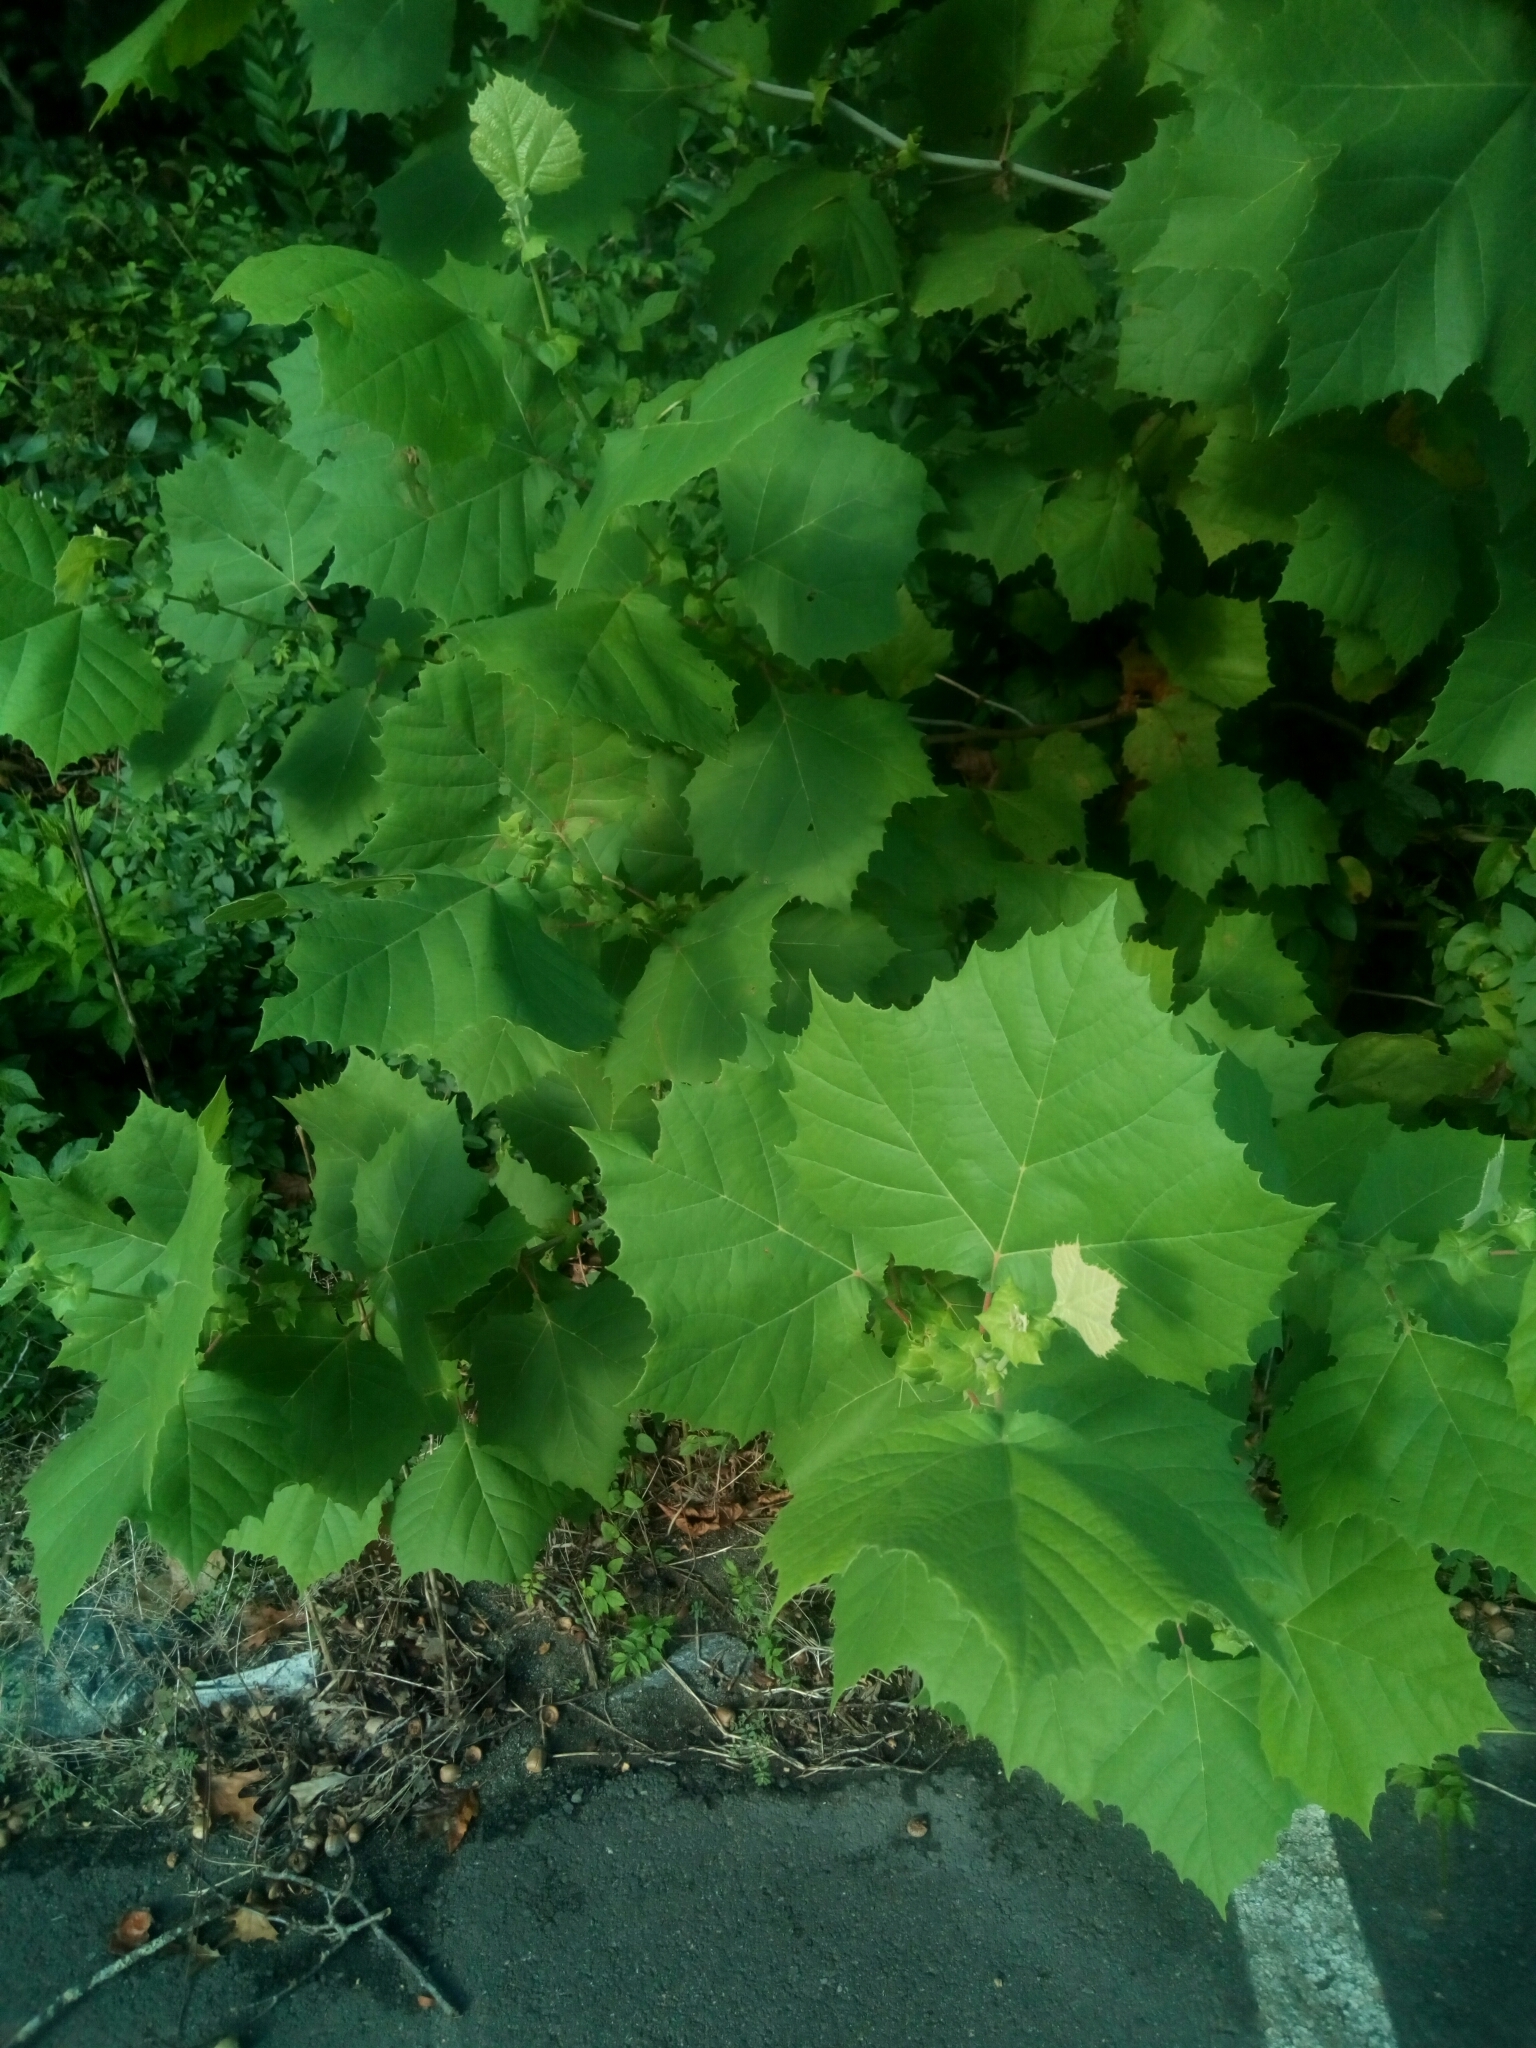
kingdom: Plantae
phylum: Tracheophyta
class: Magnoliopsida
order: Proteales
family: Platanaceae
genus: Platanus
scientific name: Platanus occidentalis
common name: American sycamore
